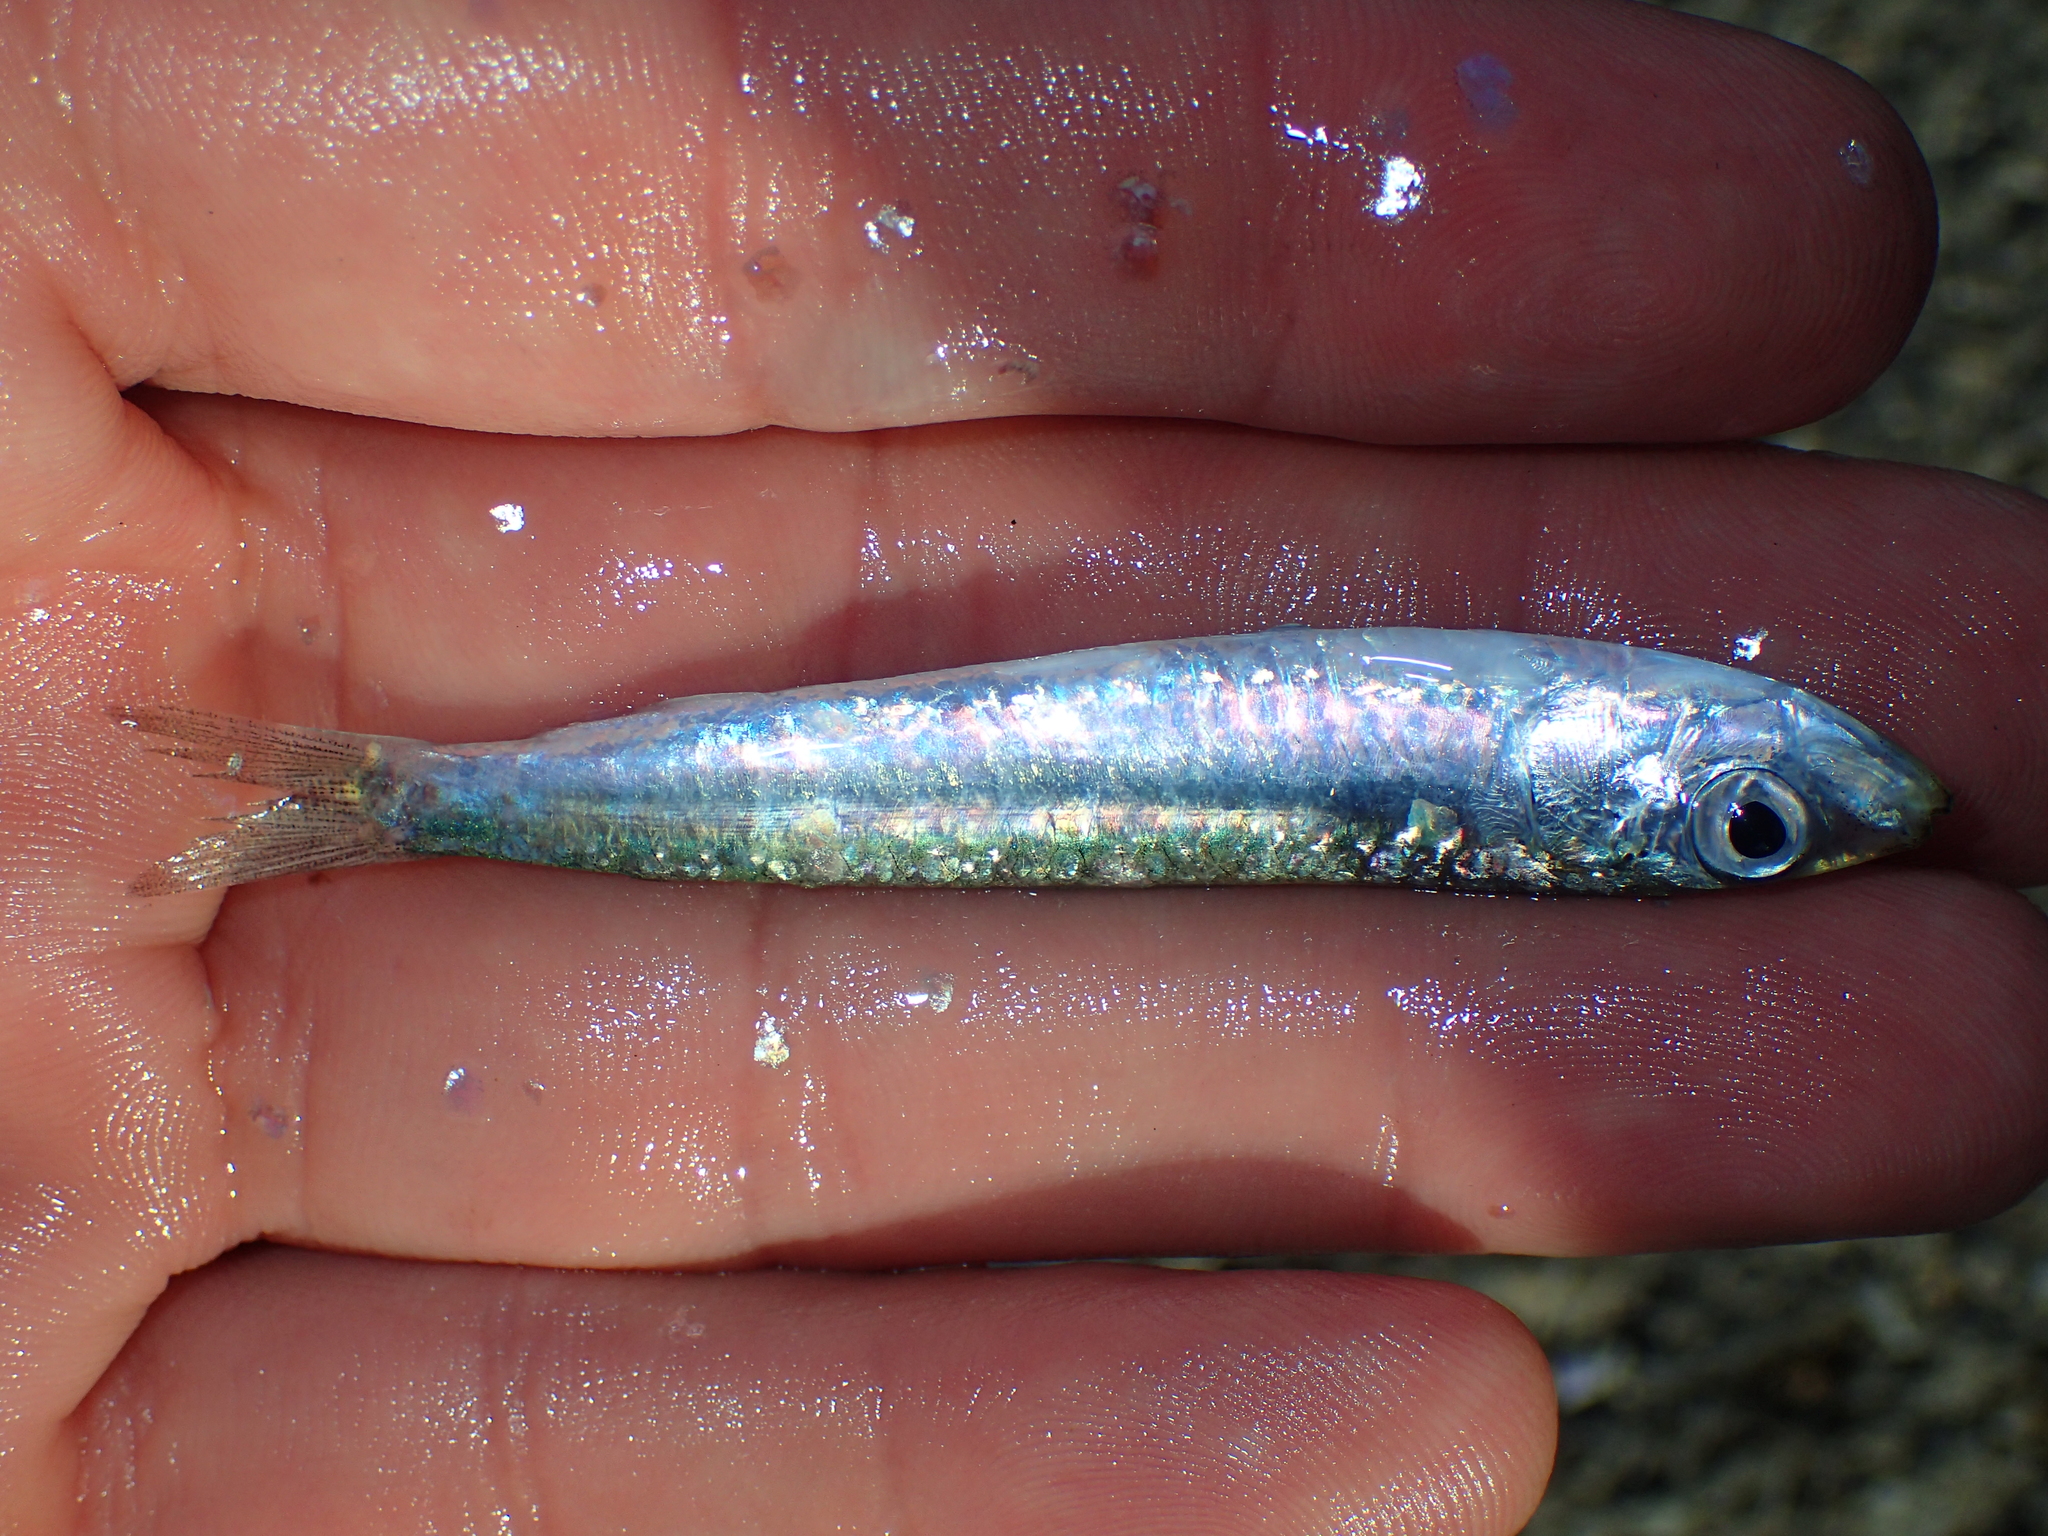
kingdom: Animalia
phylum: Chordata
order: Clupeiformes
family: Clupeidae
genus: Sardina
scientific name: Sardina pilchardus
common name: Pilchard
